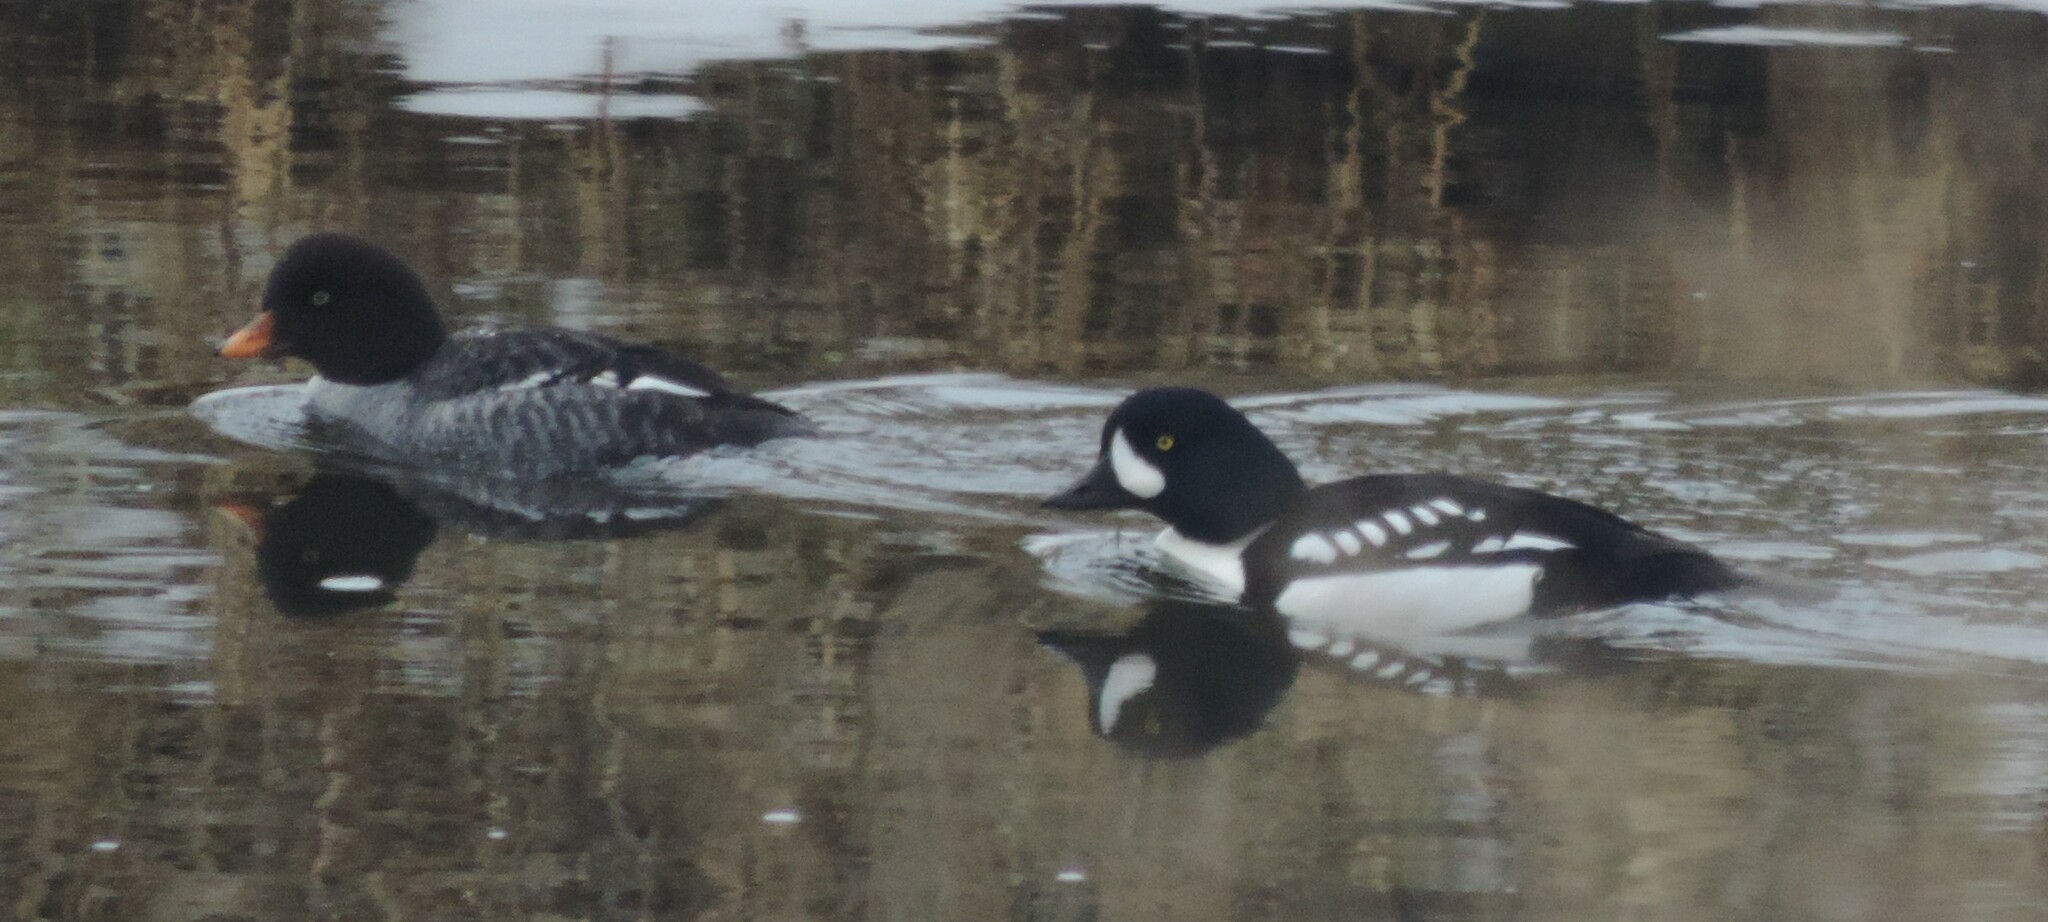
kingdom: Animalia
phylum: Chordata
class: Aves
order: Anseriformes
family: Anatidae
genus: Bucephala
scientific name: Bucephala islandica
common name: Barrow's goldeneye
